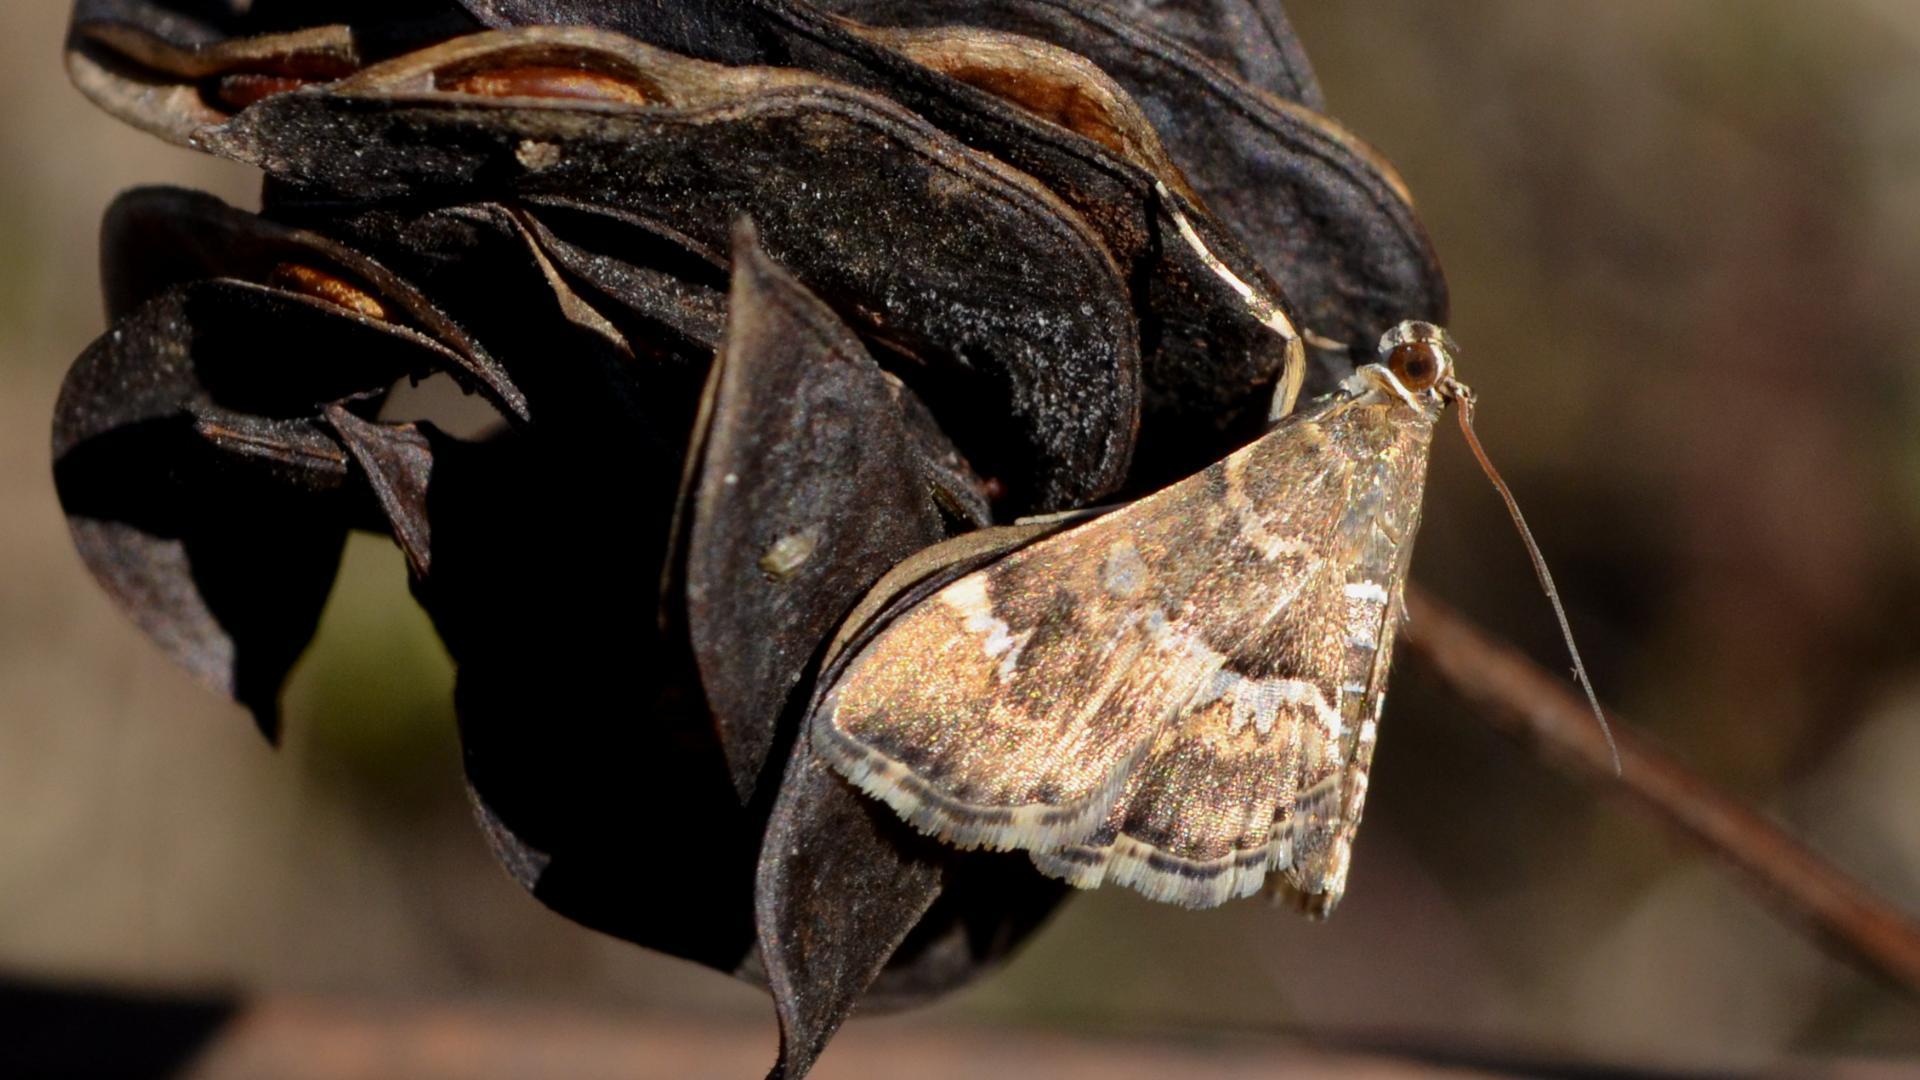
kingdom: Animalia
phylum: Arthropoda
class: Insecta
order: Lepidoptera
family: Crambidae
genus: Hymenia
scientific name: Hymenia perspectalis
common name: Spotted beet webworm
